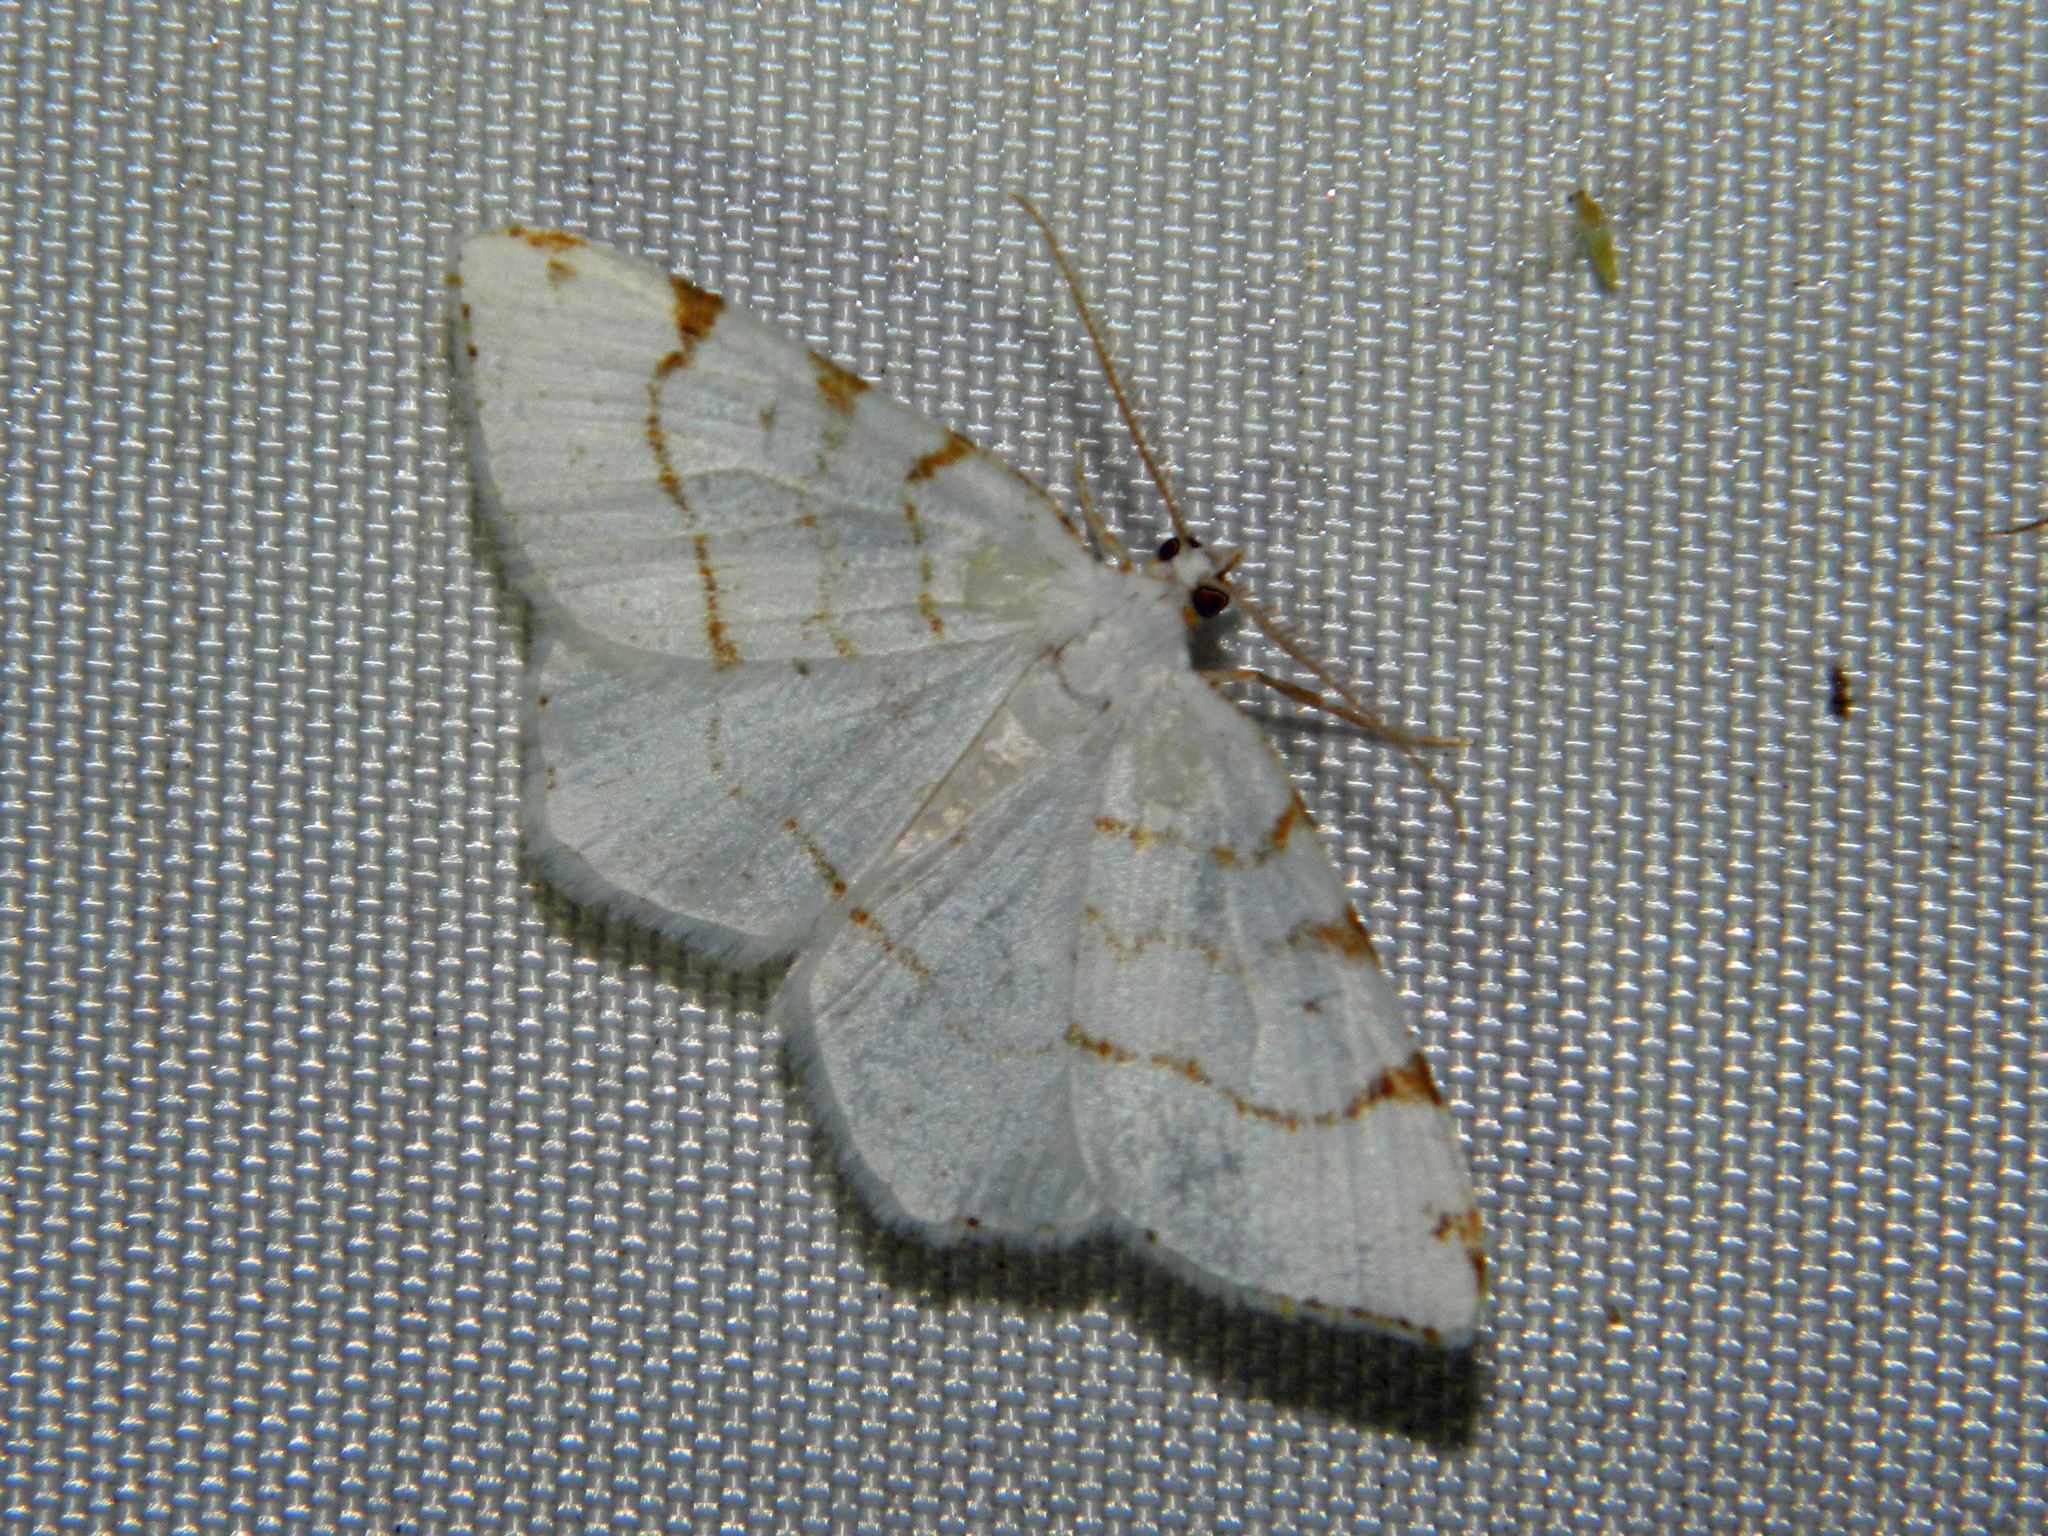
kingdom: Animalia
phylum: Arthropoda
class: Insecta
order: Lepidoptera
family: Geometridae
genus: Macaria
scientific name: Macaria pustularia
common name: Lesser maple spanworm moth
